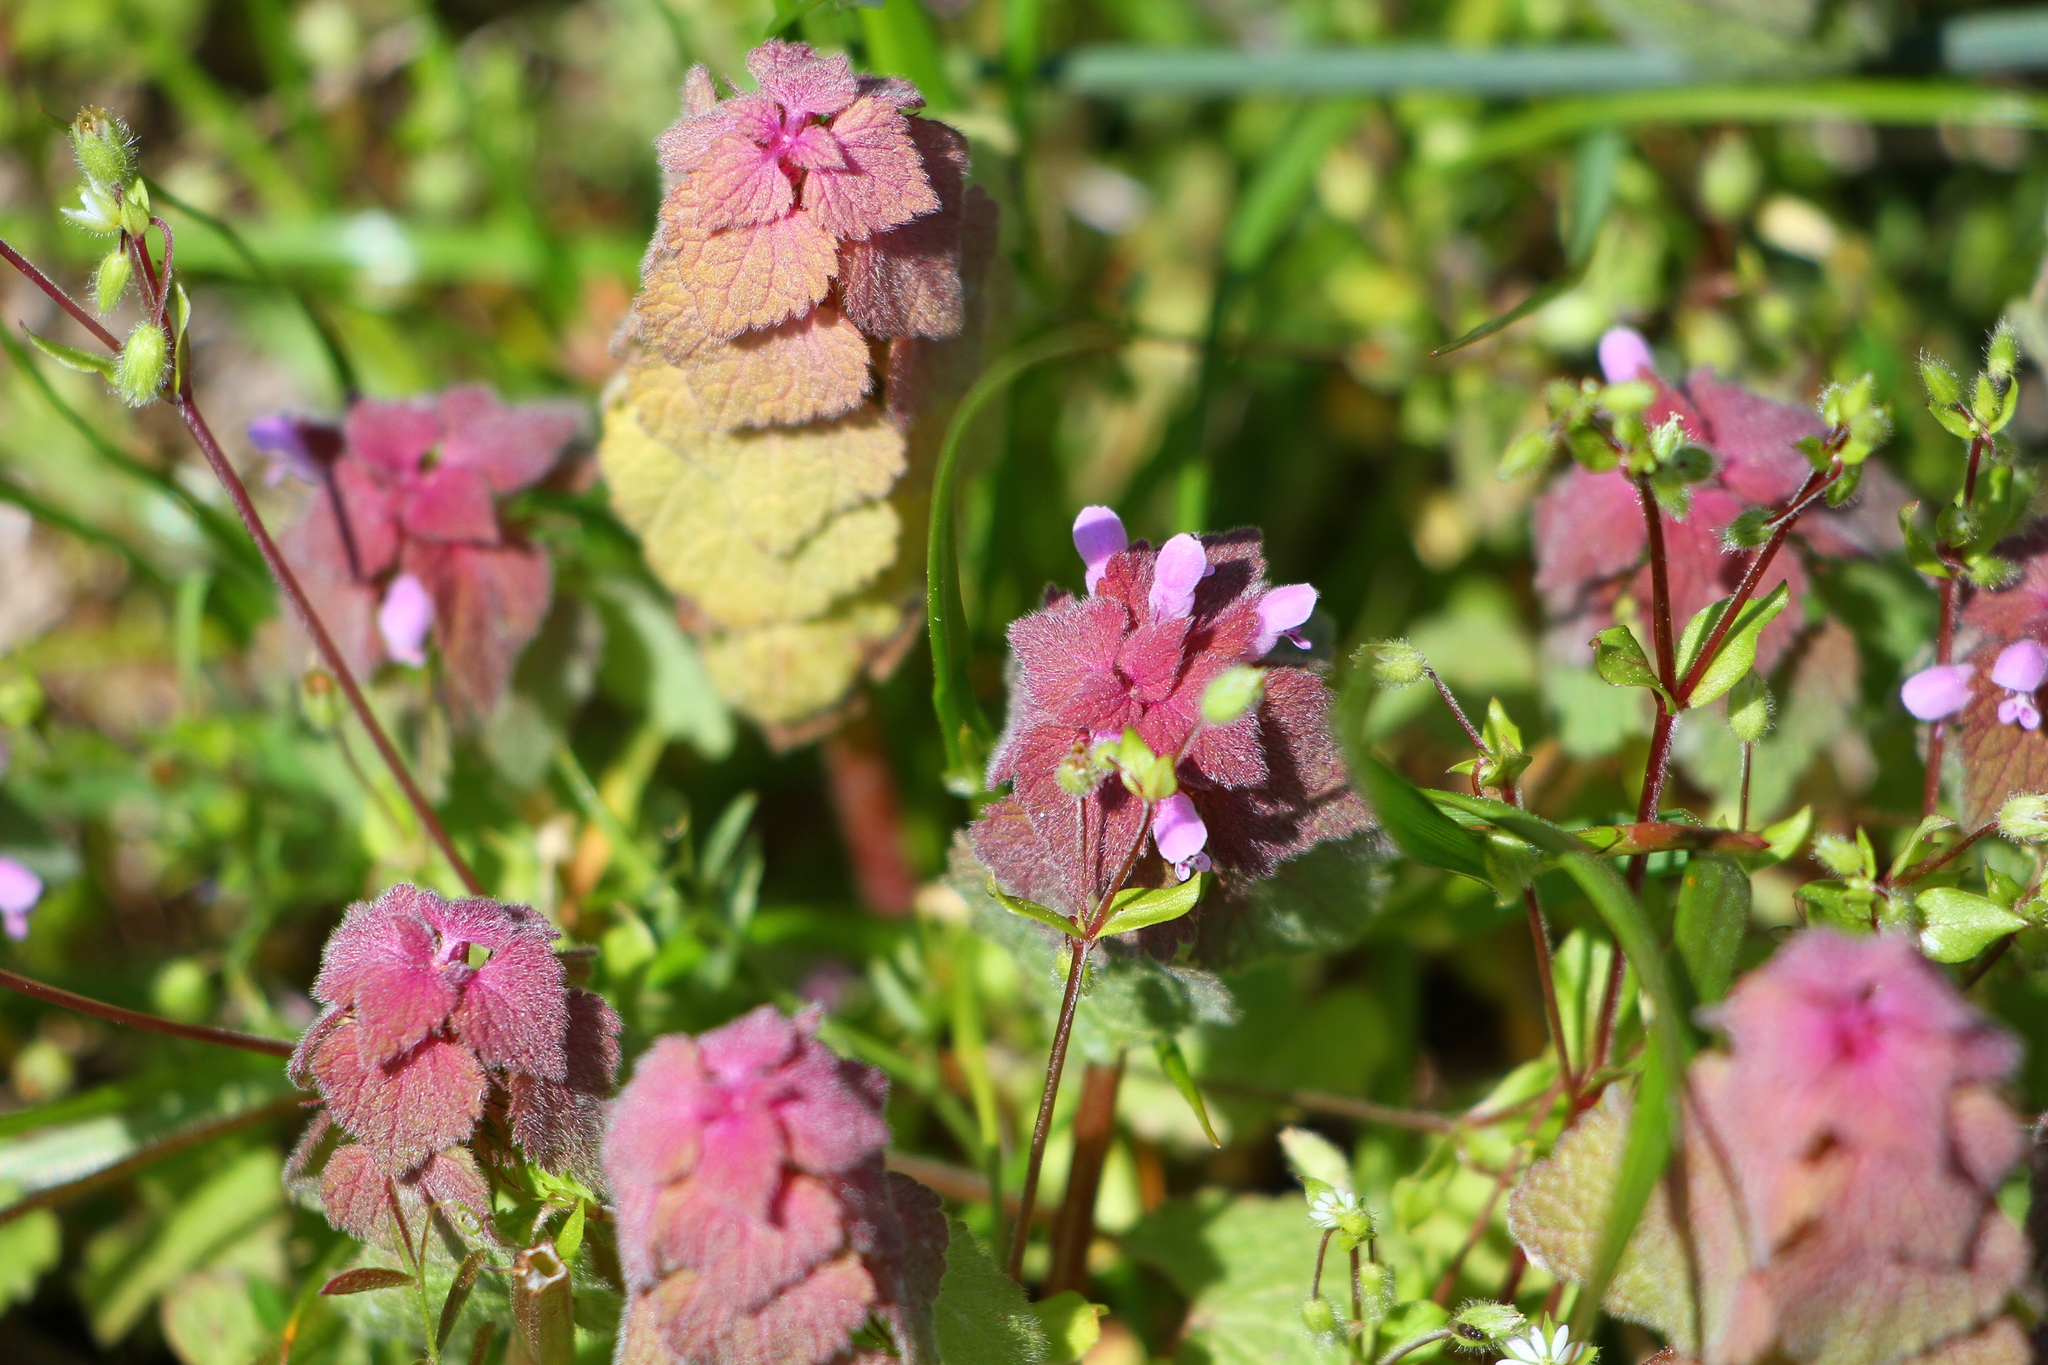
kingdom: Plantae
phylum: Tracheophyta
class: Magnoliopsida
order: Lamiales
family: Lamiaceae
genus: Lamium
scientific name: Lamium purpureum
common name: Red dead-nettle
